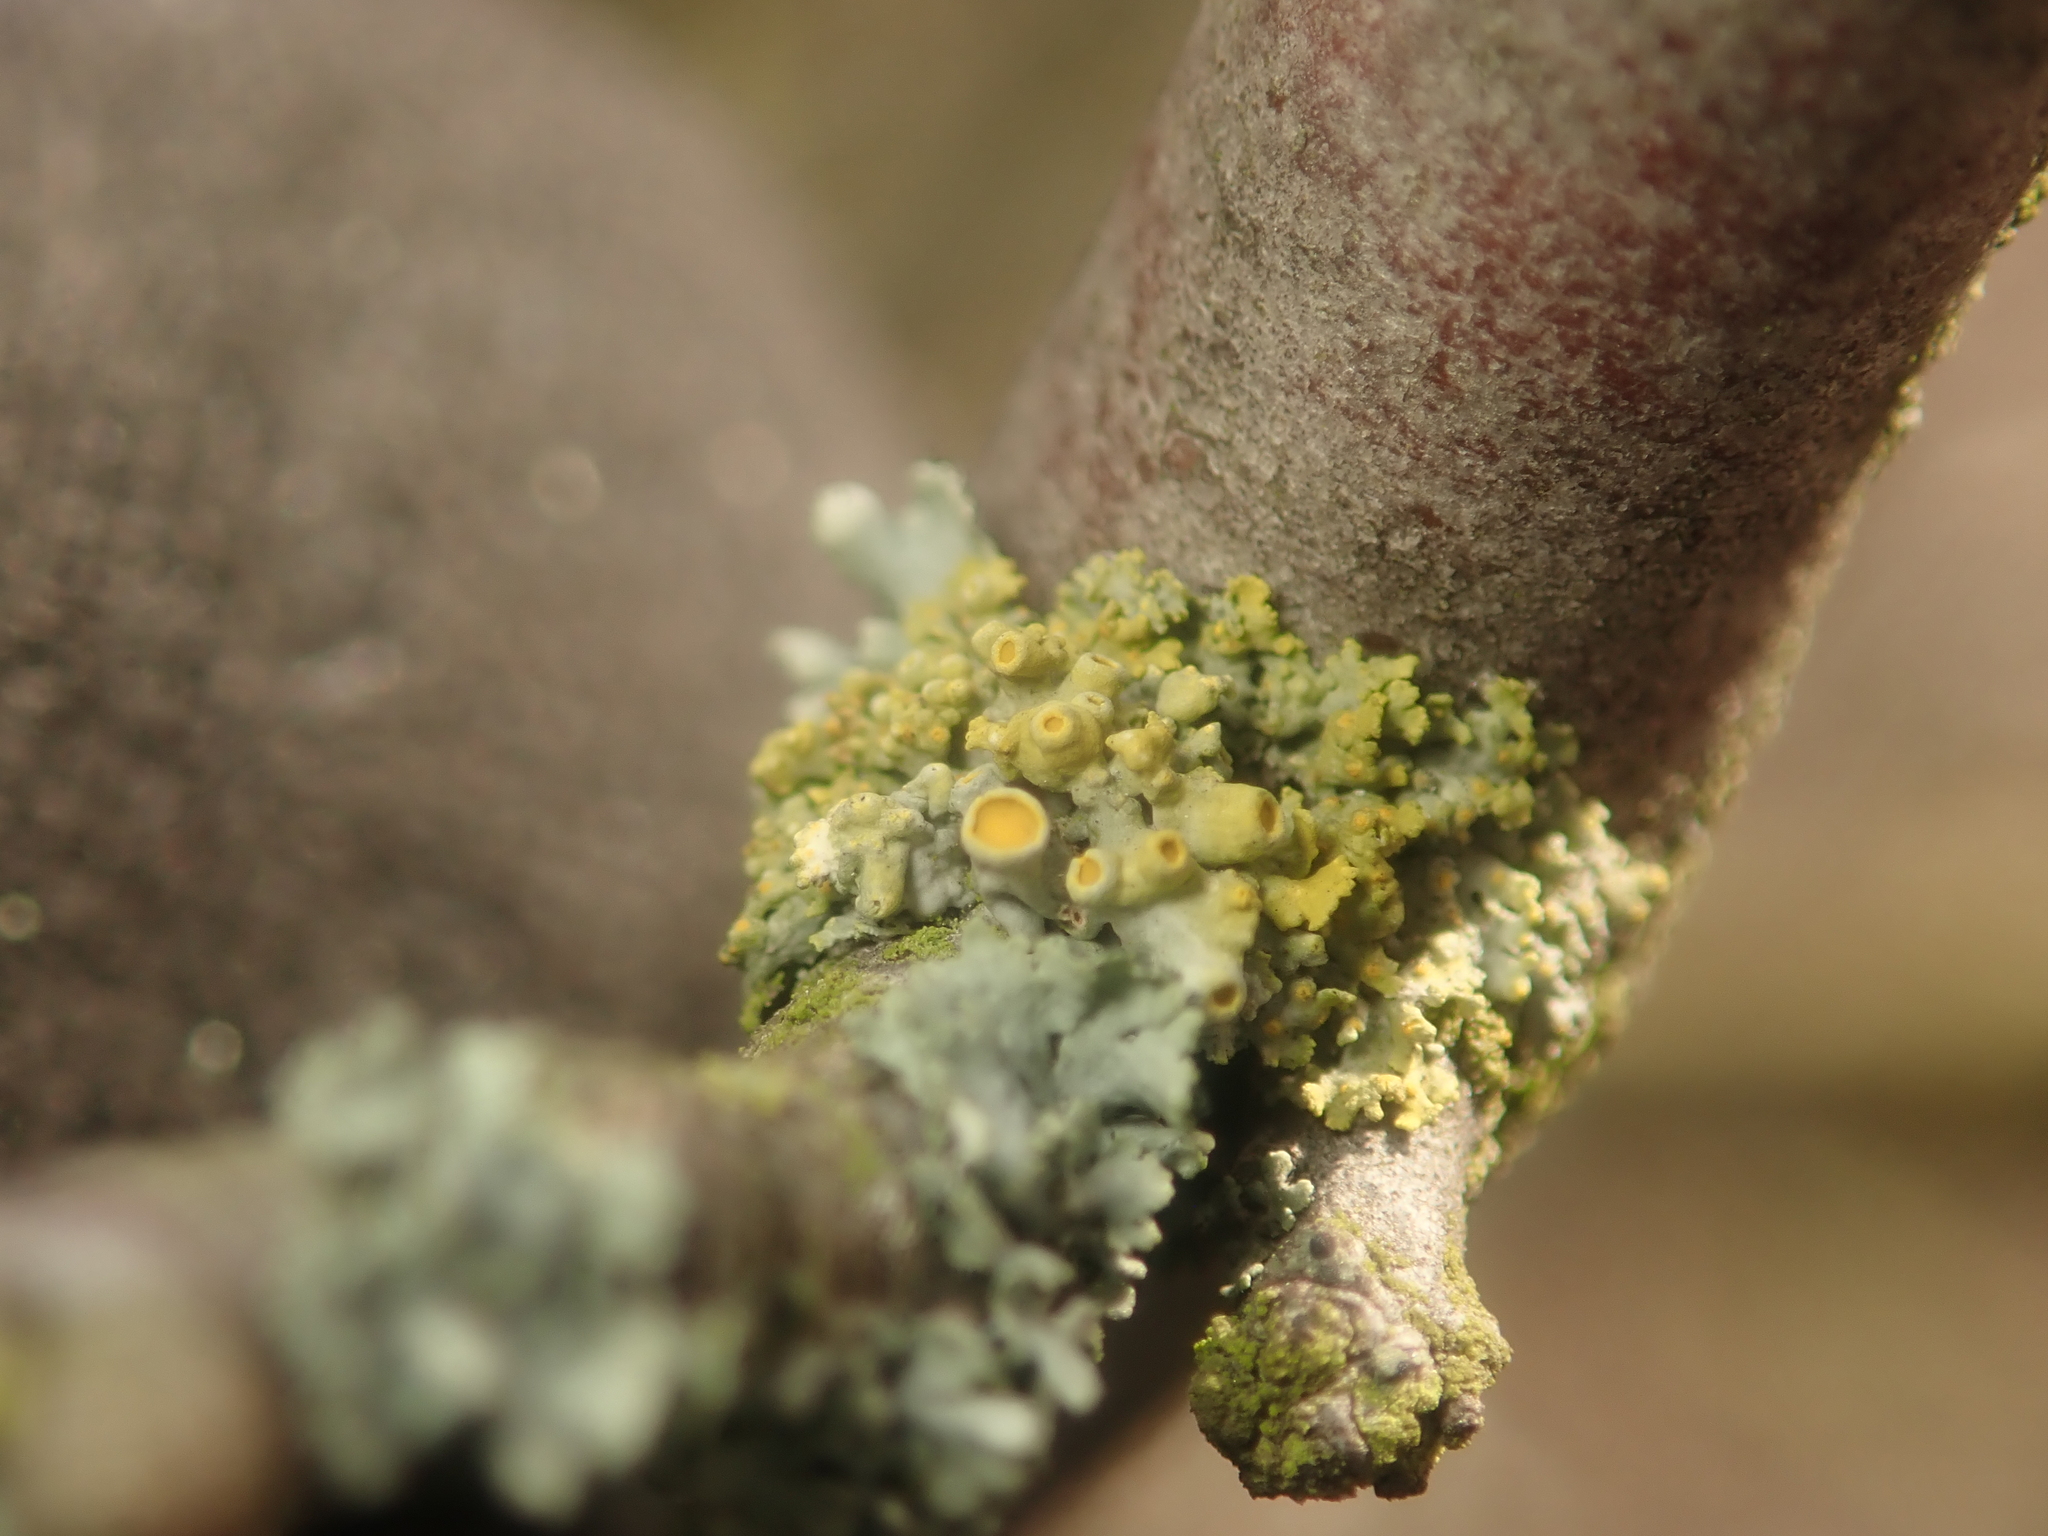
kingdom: Fungi
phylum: Ascomycota
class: Lecanoromycetes
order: Teloschistales
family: Teloschistaceae
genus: Polycauliona
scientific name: Polycauliona polycarpa
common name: Pin-cushion sunburst lichen
